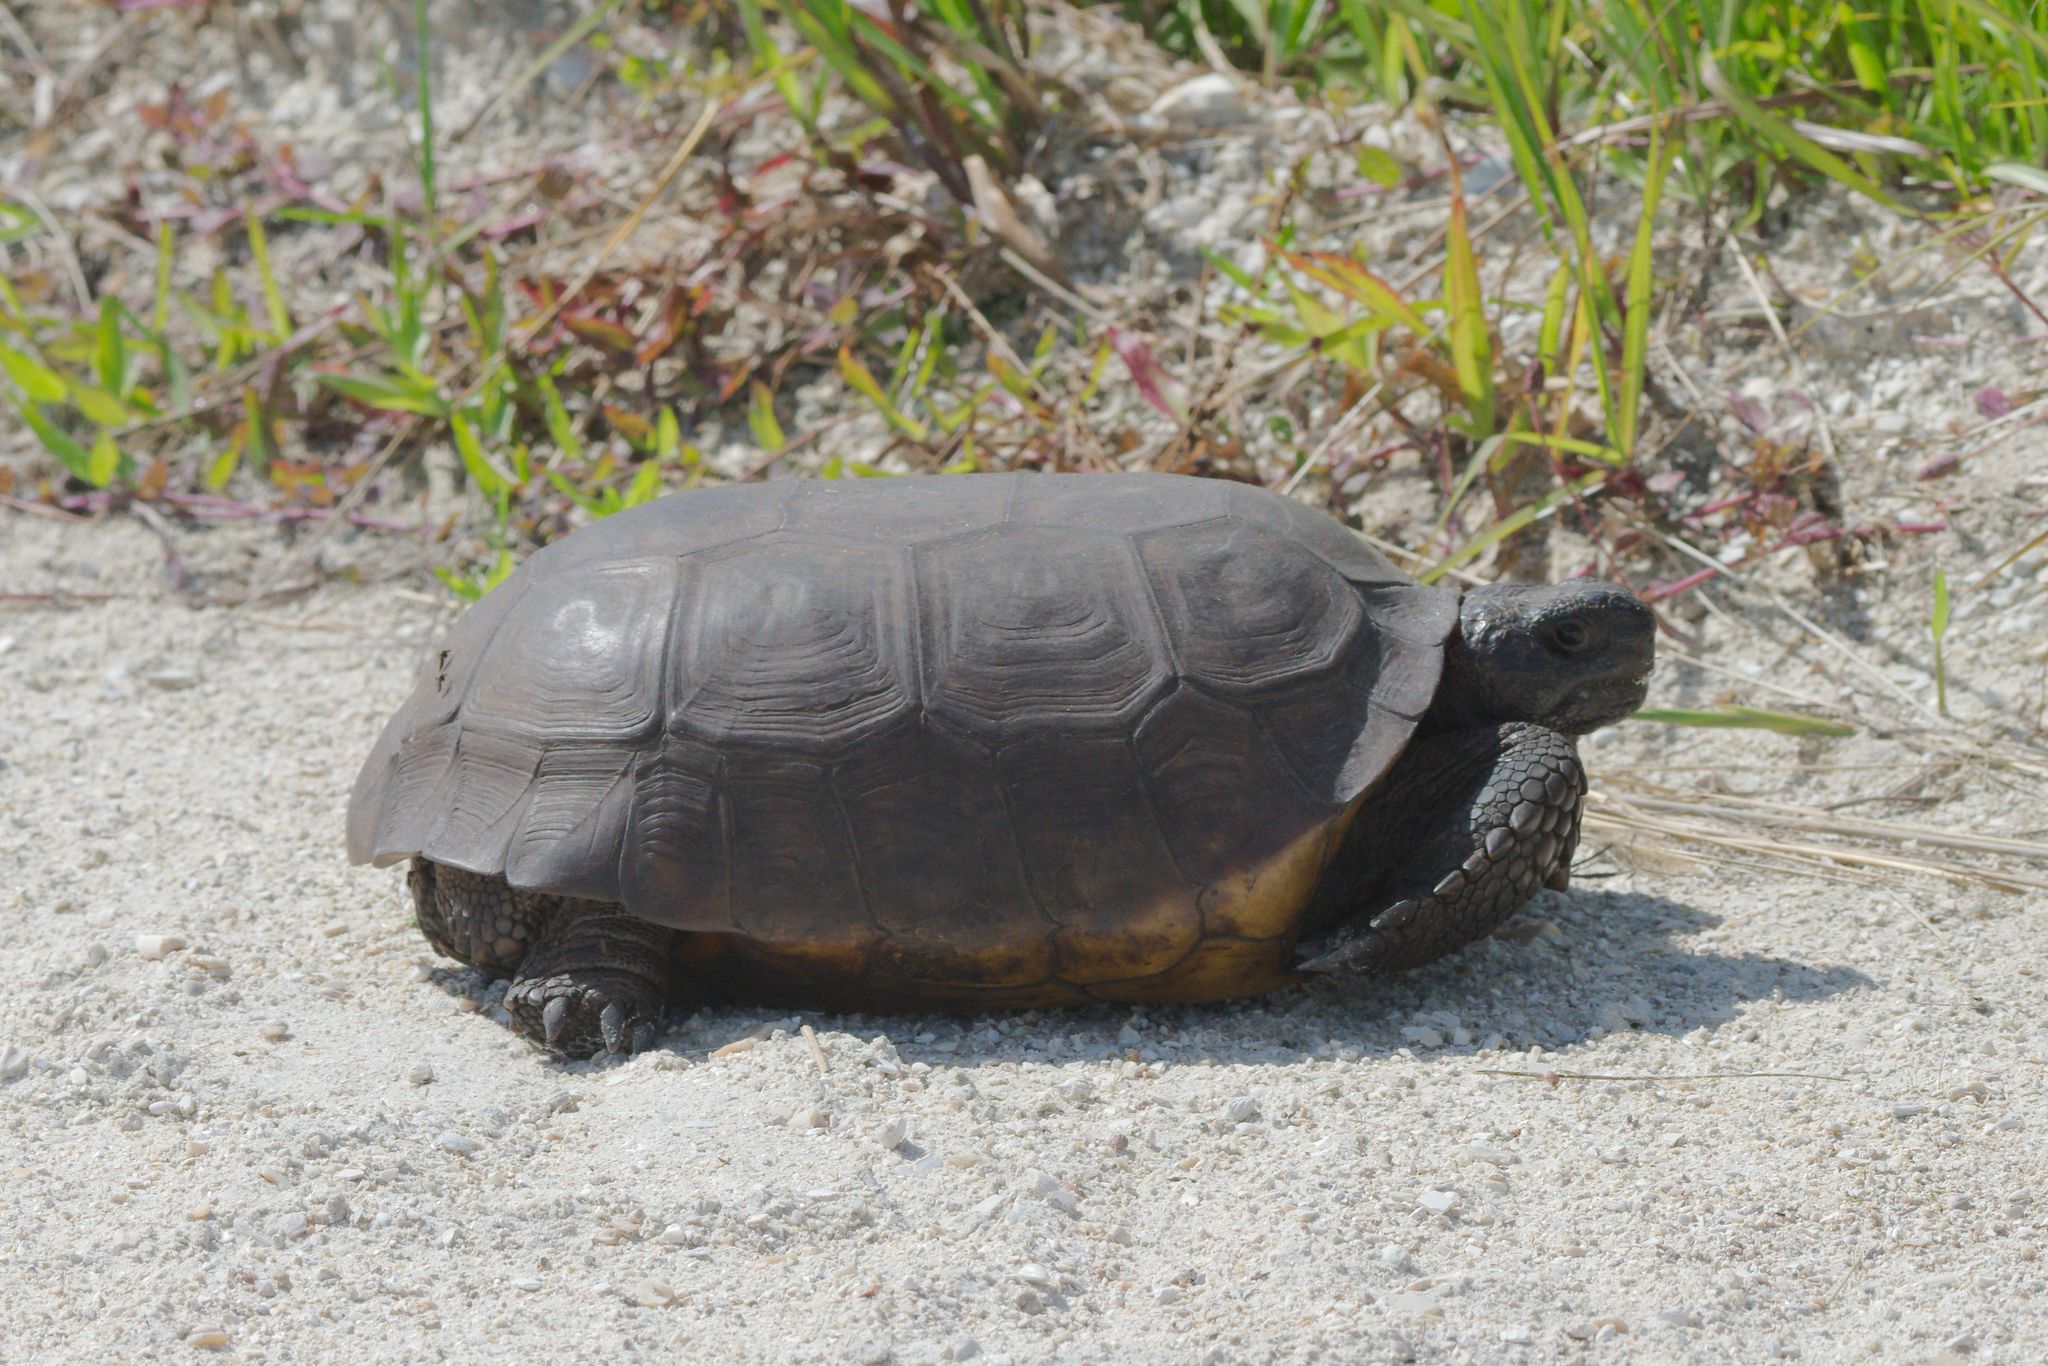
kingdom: Animalia
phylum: Chordata
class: Testudines
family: Testudinidae
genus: Gopherus
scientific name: Gopherus polyphemus
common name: Florida gopher tortoise
